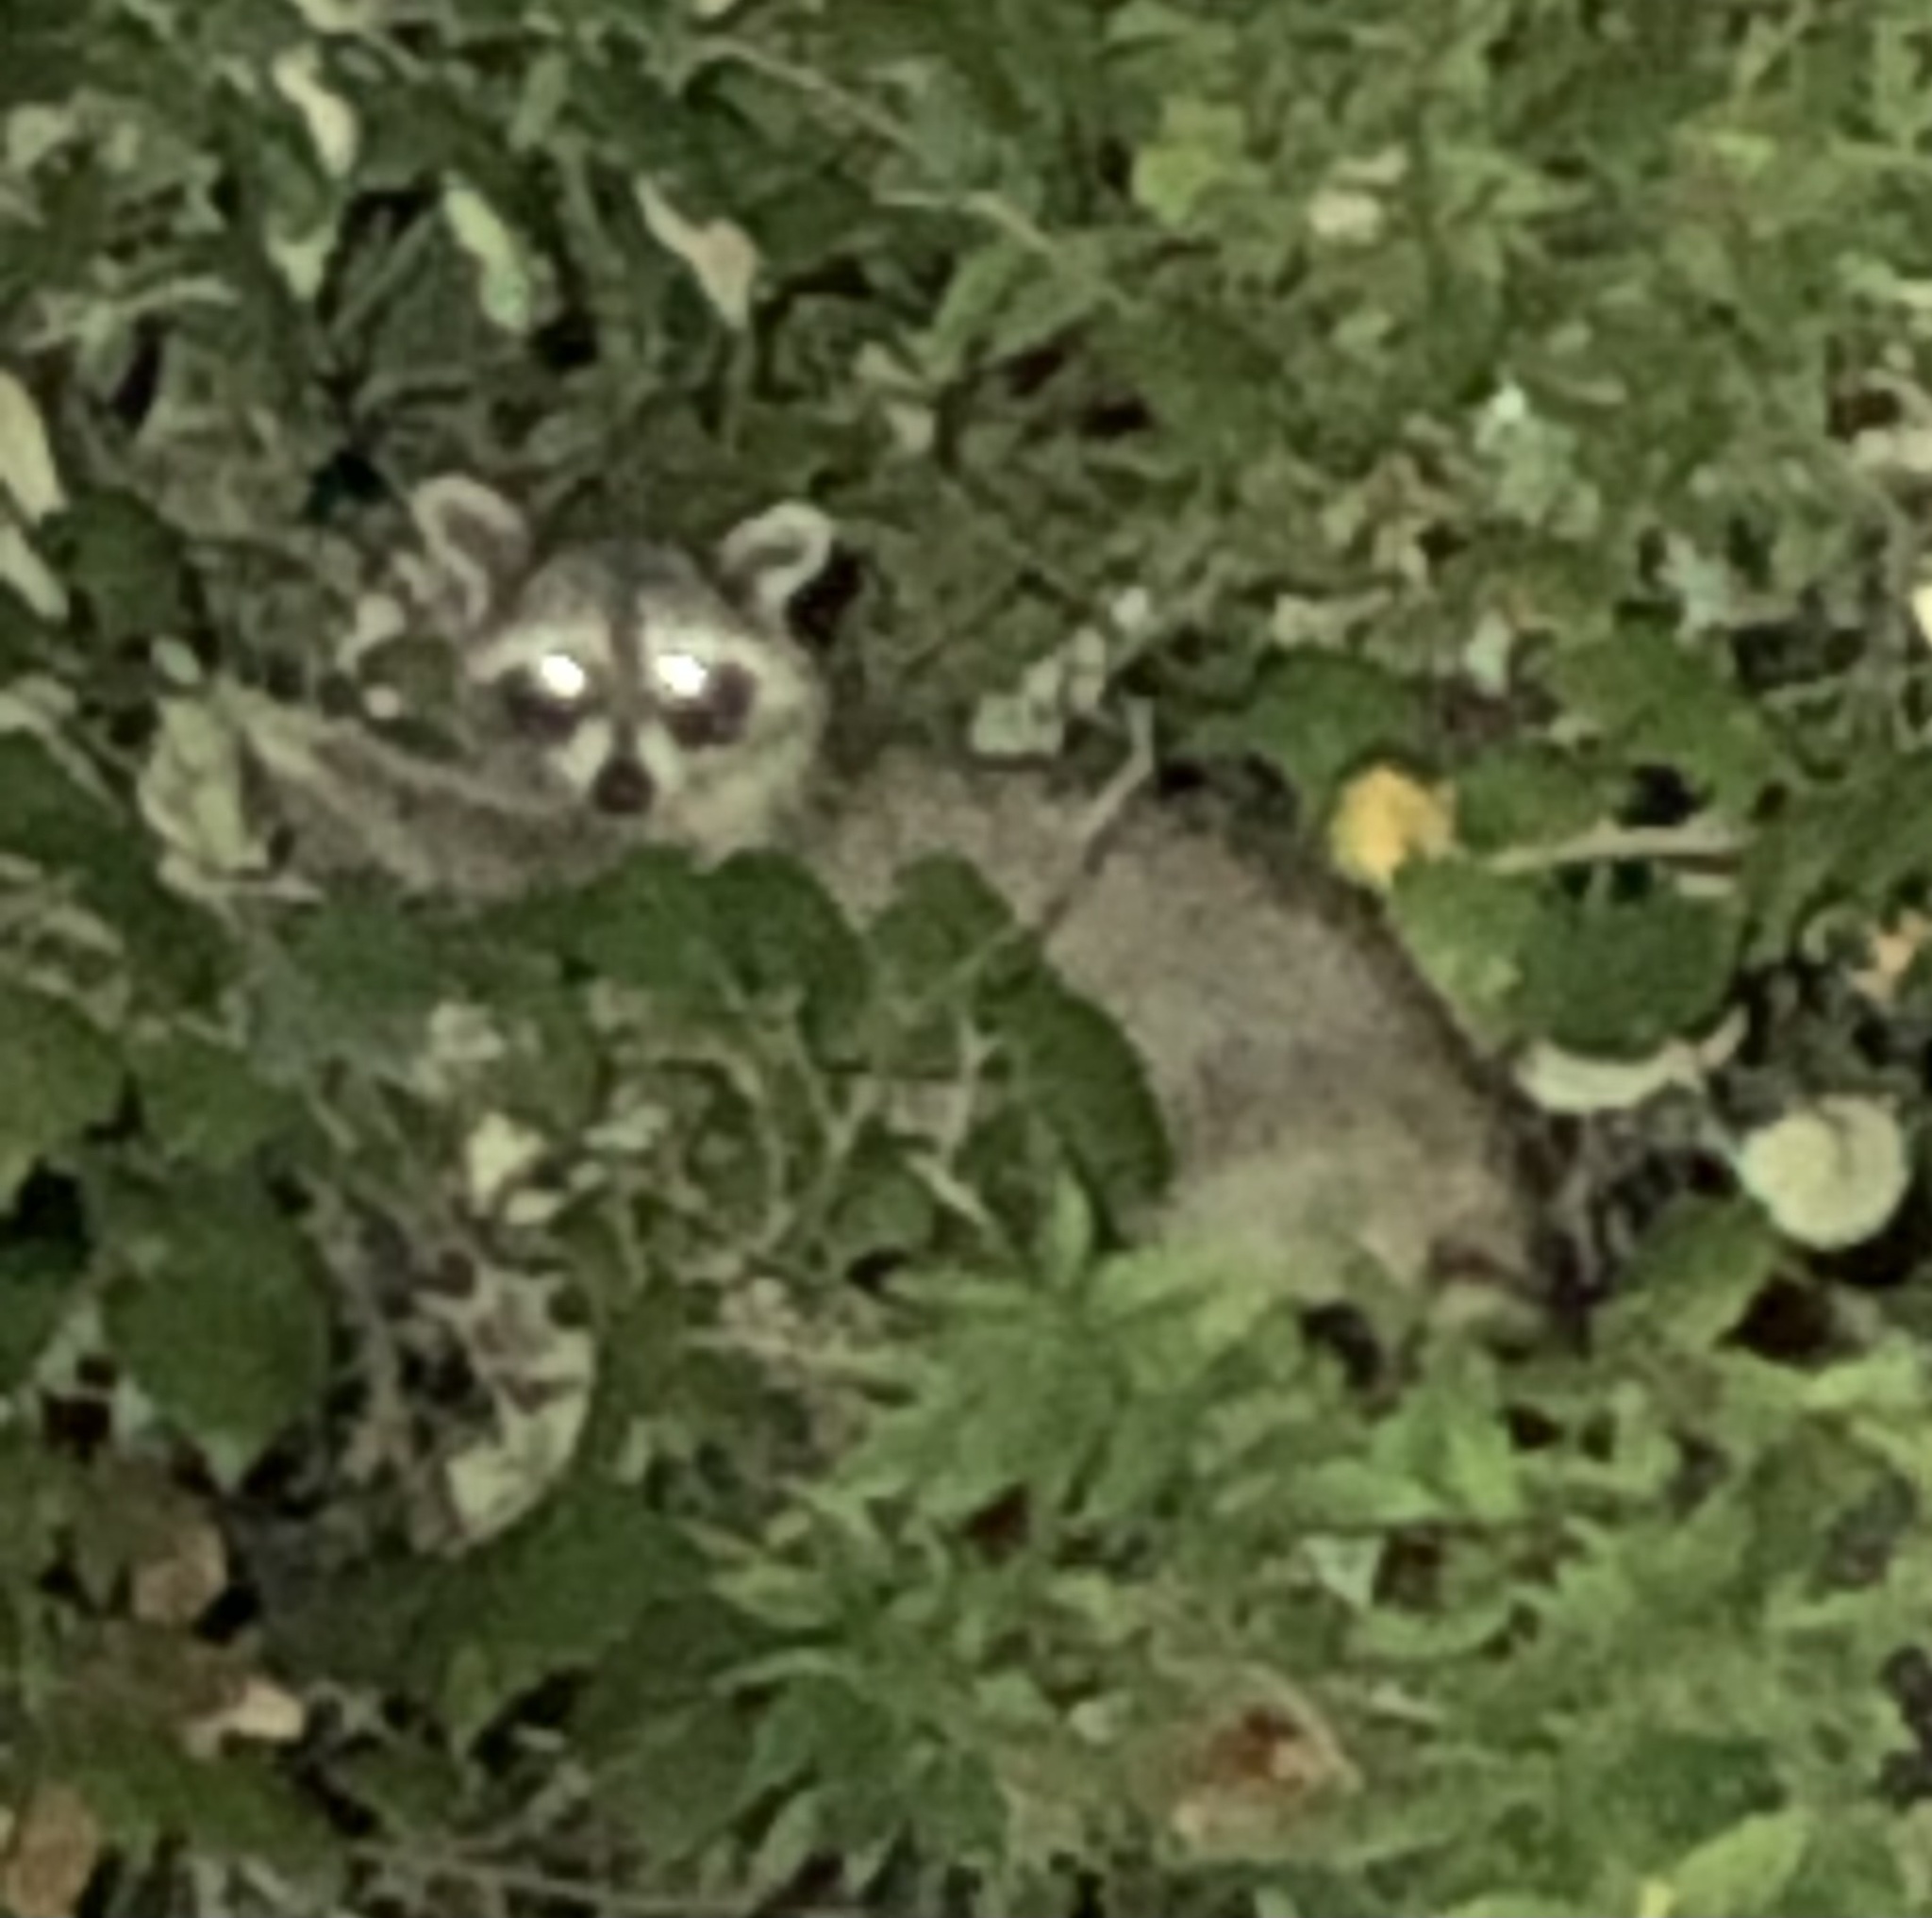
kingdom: Animalia
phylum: Chordata
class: Mammalia
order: Carnivora
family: Procyonidae
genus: Procyon
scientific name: Procyon lotor
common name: Raccoon
